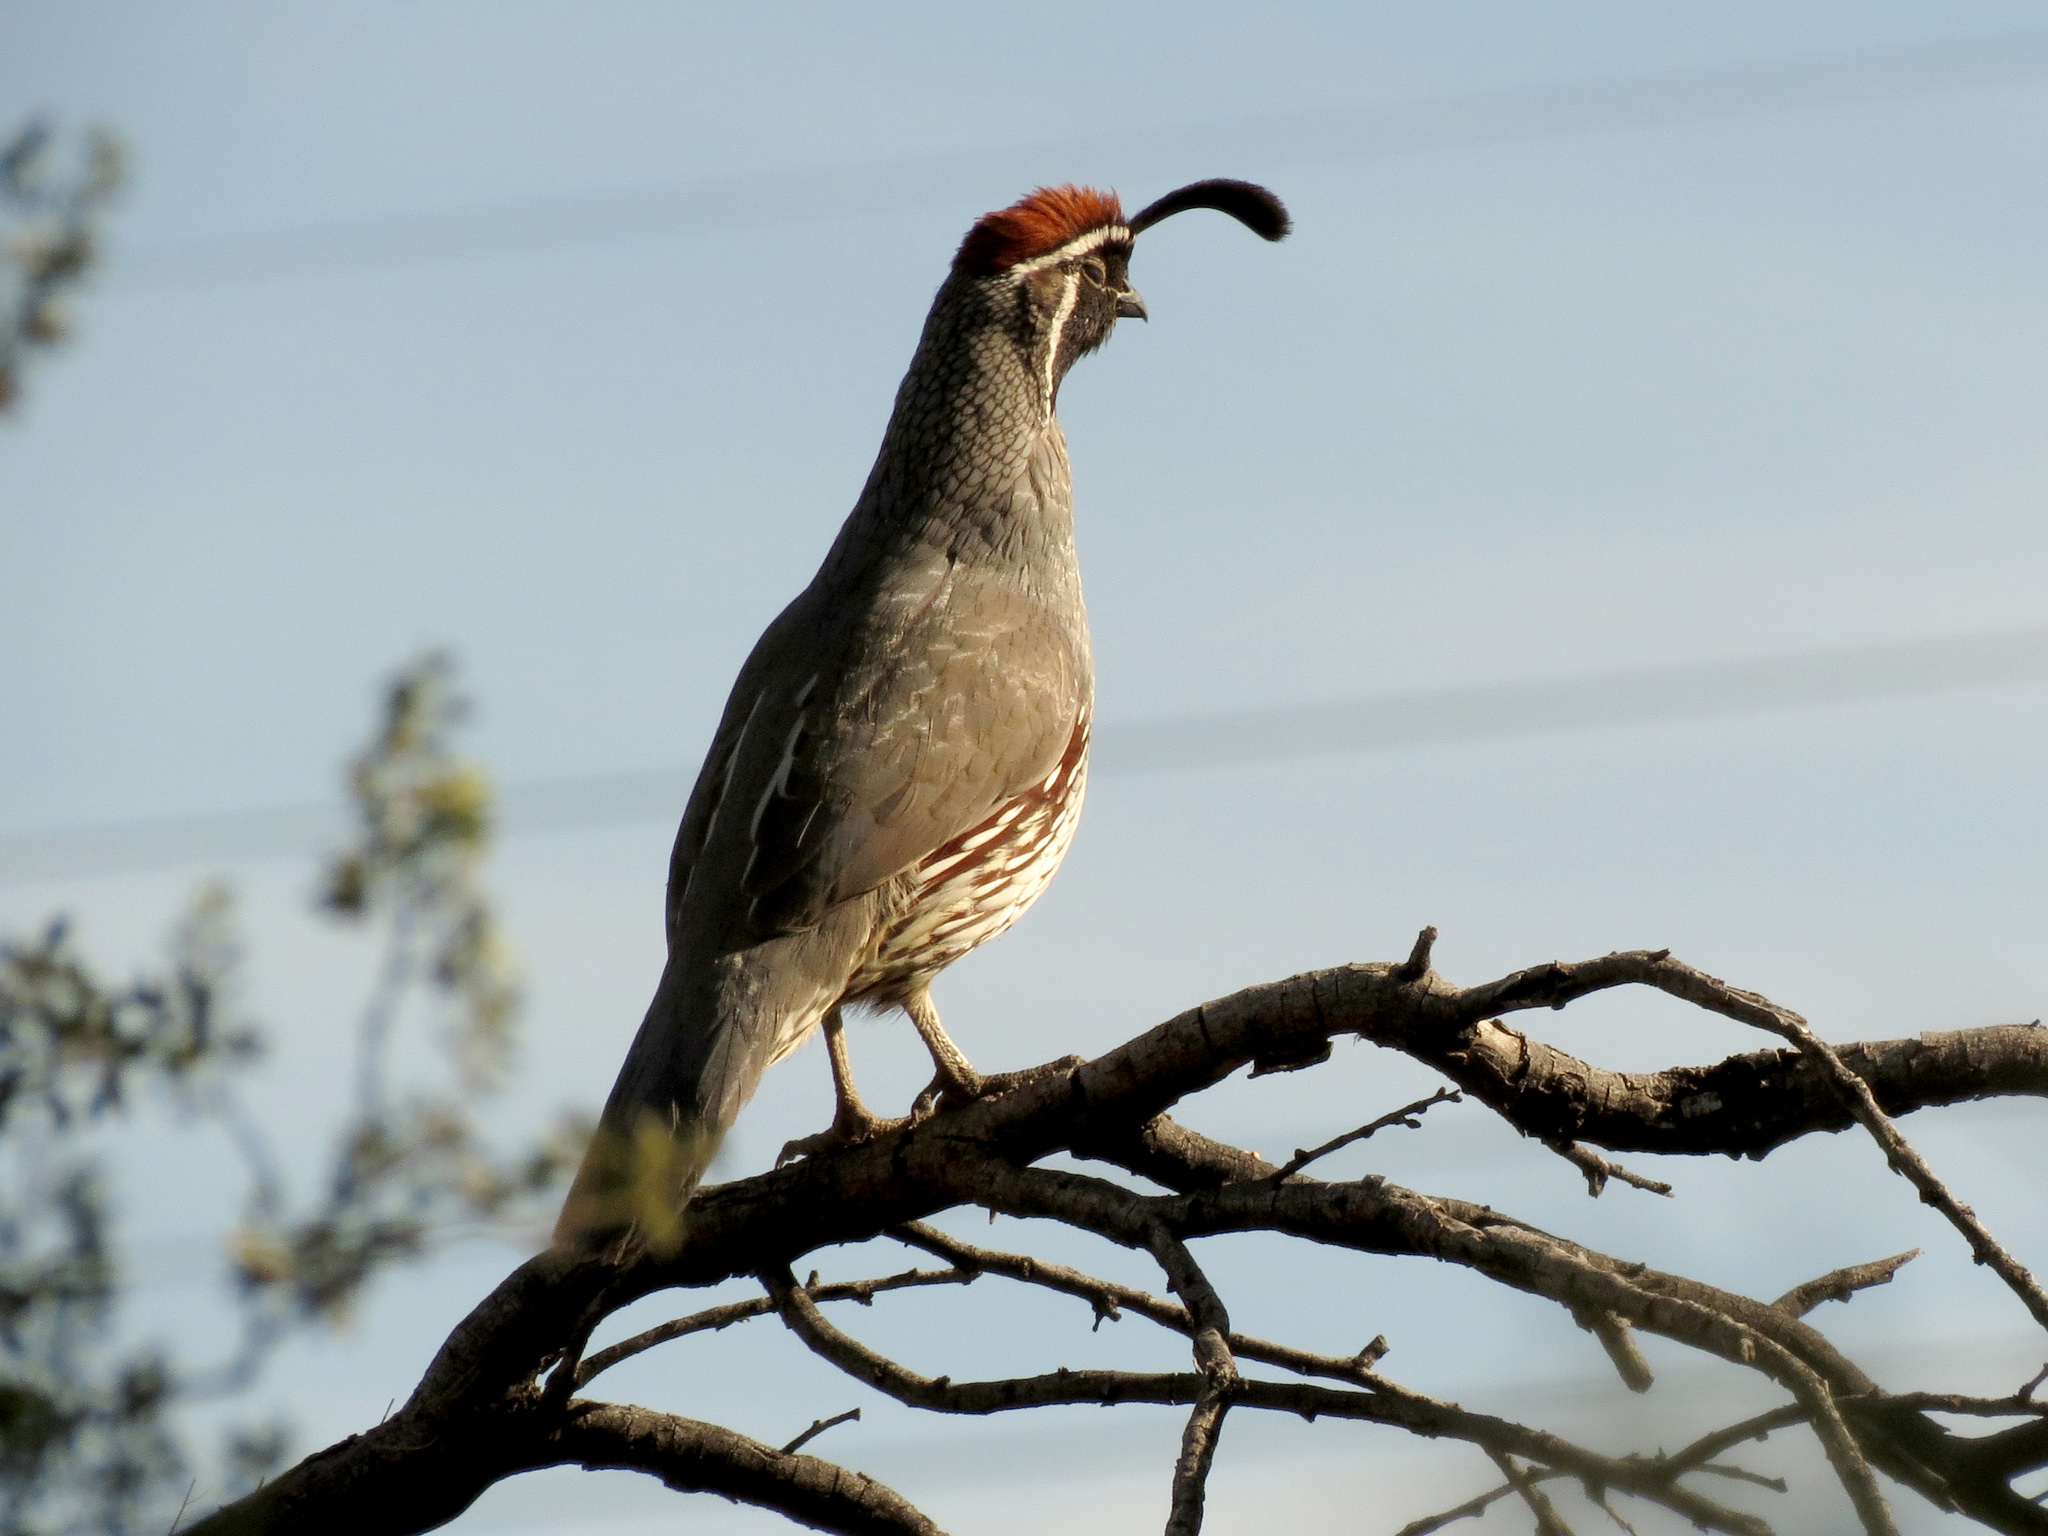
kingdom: Animalia
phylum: Chordata
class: Aves
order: Galliformes
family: Odontophoridae
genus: Callipepla
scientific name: Callipepla gambelii
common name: Gambel's quail
